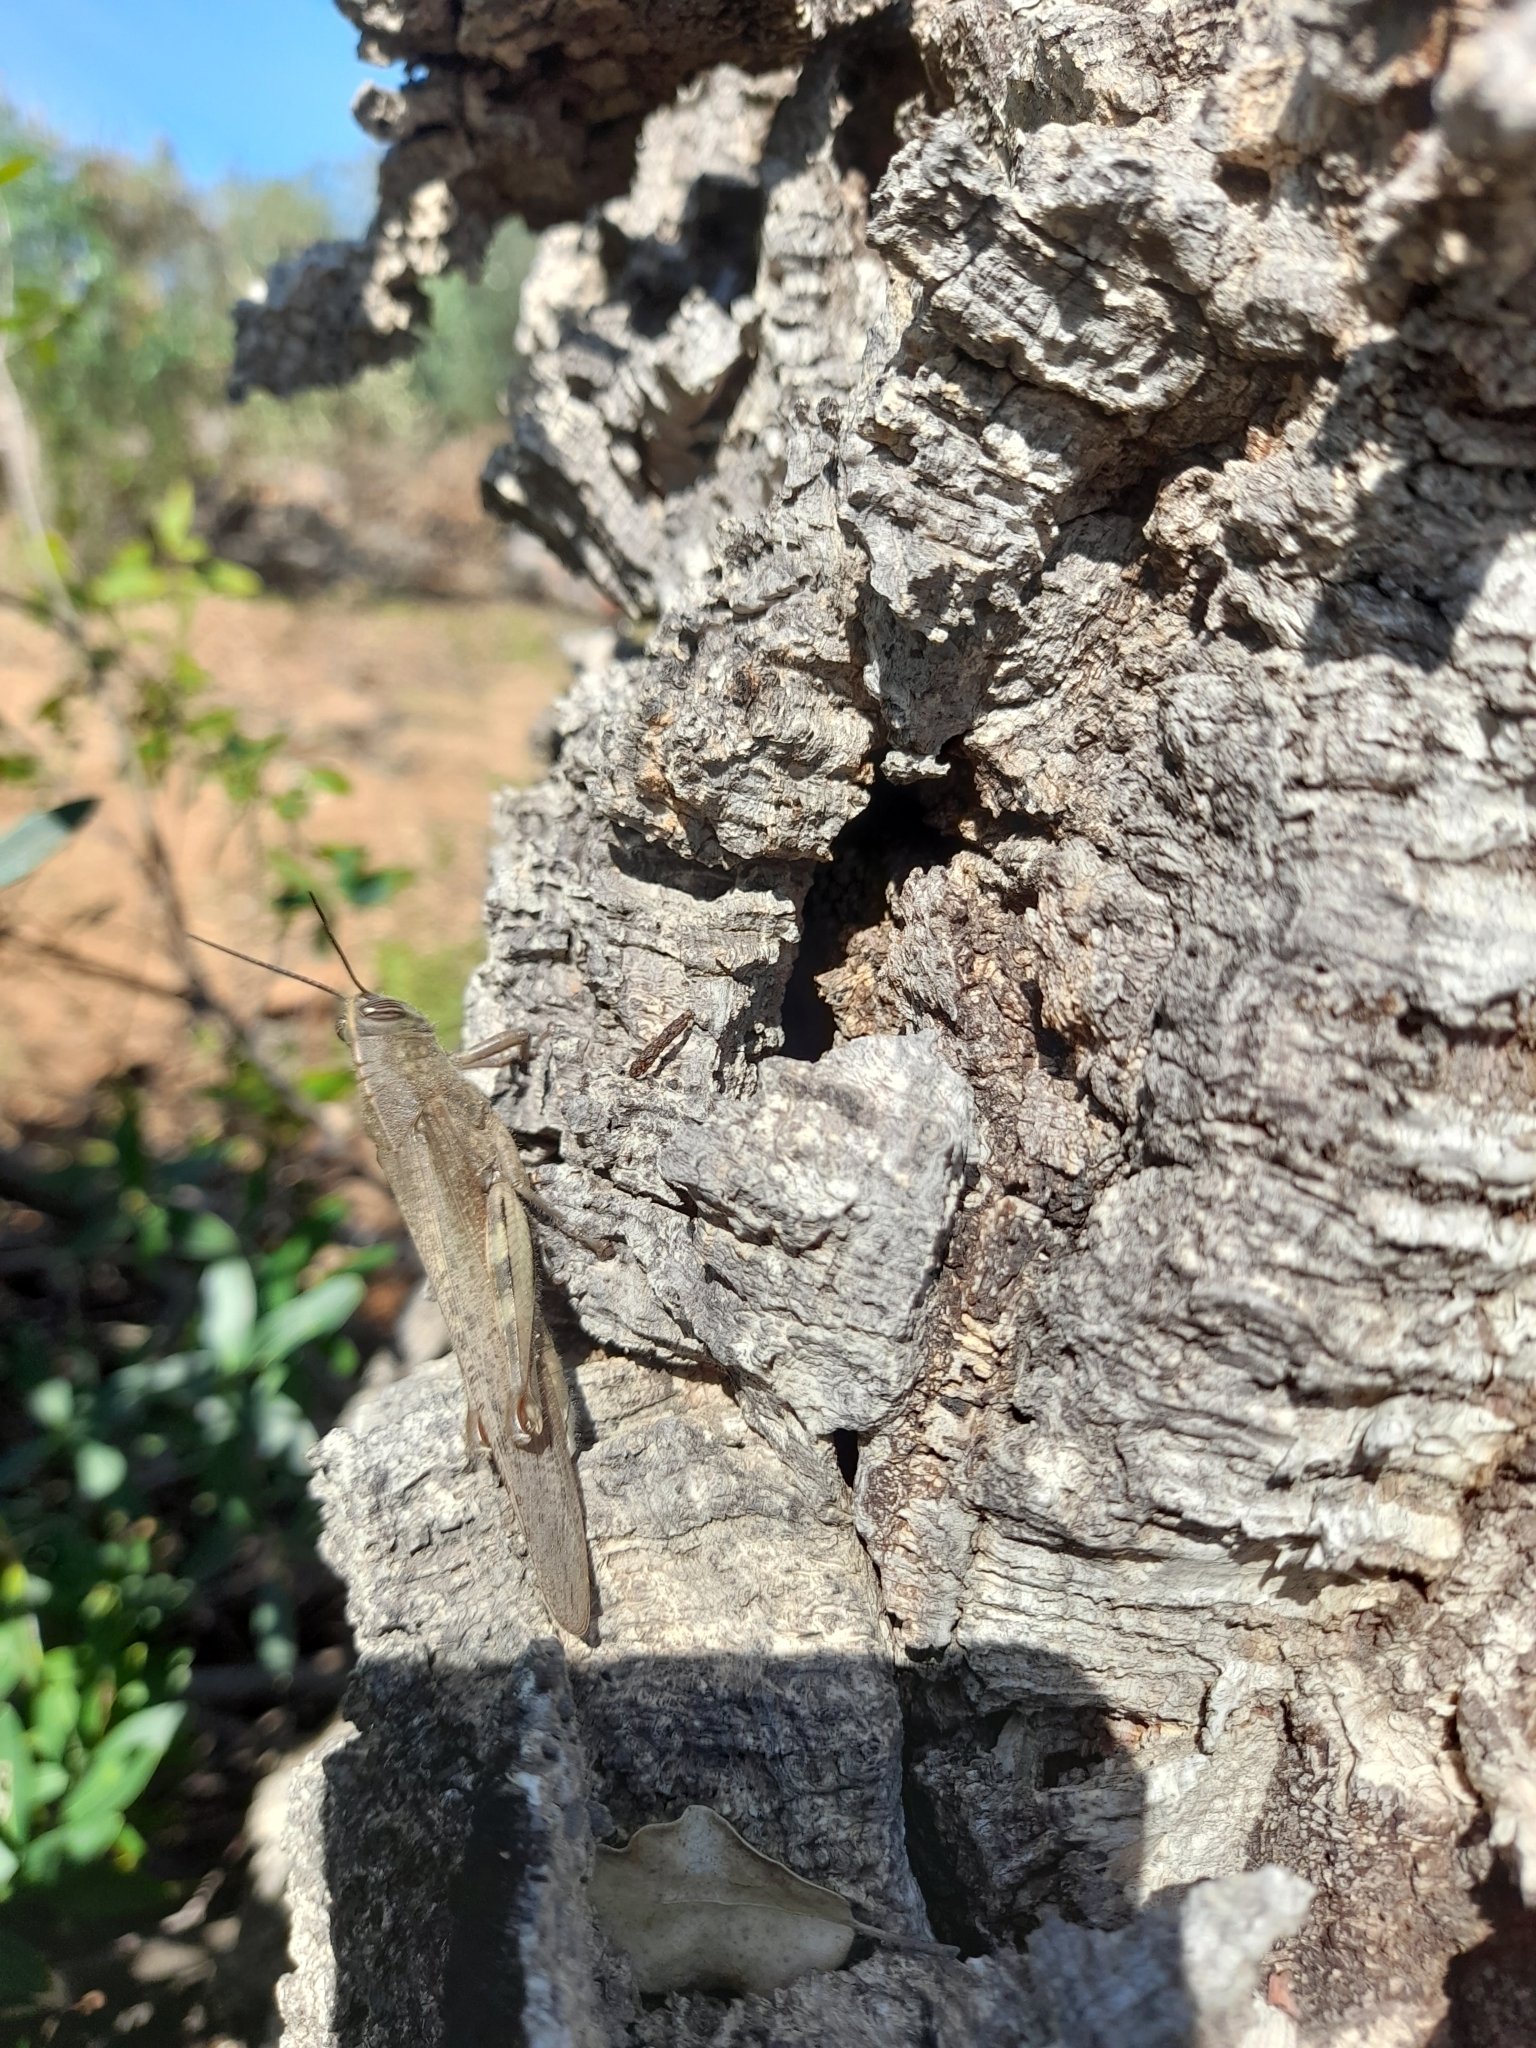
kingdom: Animalia
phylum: Arthropoda
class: Insecta
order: Orthoptera
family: Acrididae
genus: Anacridium
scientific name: Anacridium aegyptium
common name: Egyptian grasshopper
